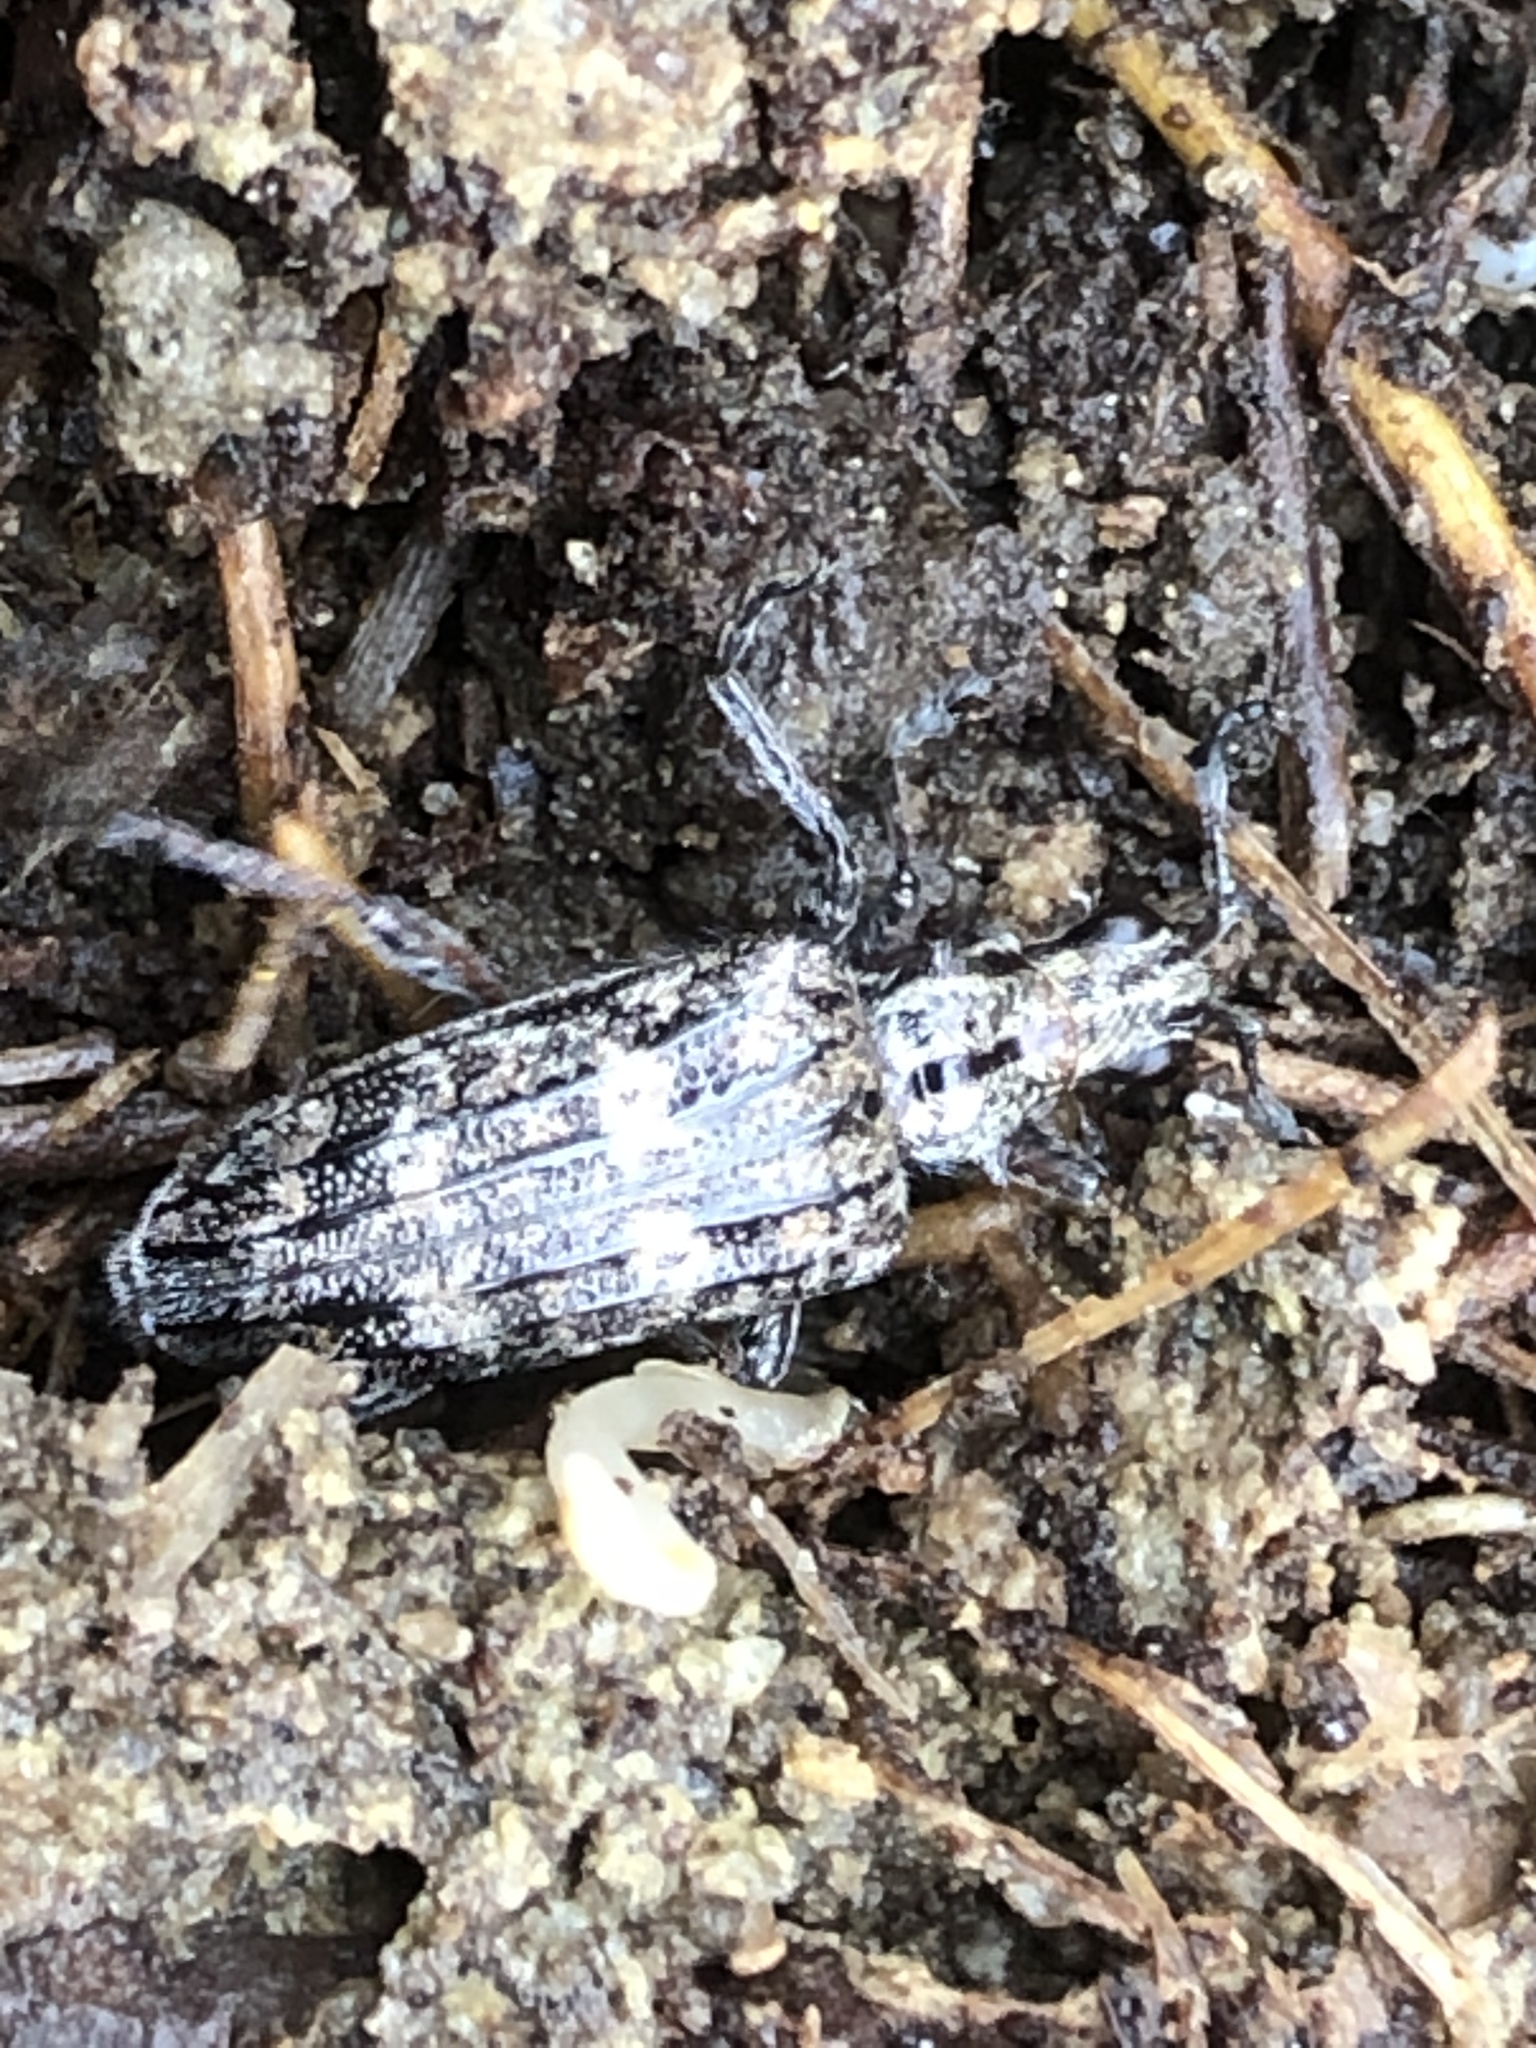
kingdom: Animalia
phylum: Arthropoda
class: Insecta
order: Coleoptera
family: Cerambycidae
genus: Rhagium
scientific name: Rhagium inquisitor
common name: Ribbed pine borer
